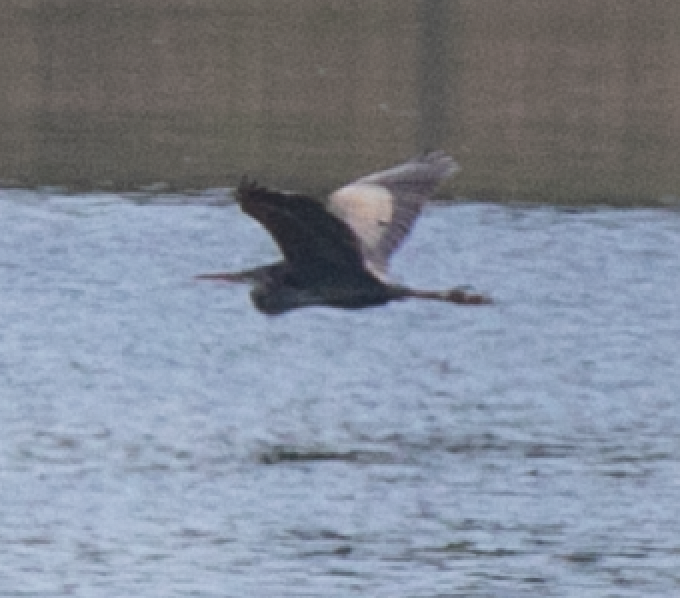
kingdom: Animalia
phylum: Chordata
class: Aves
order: Pelecaniformes
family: Ardeidae
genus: Ardea
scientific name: Ardea purpurea
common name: Purple heron
